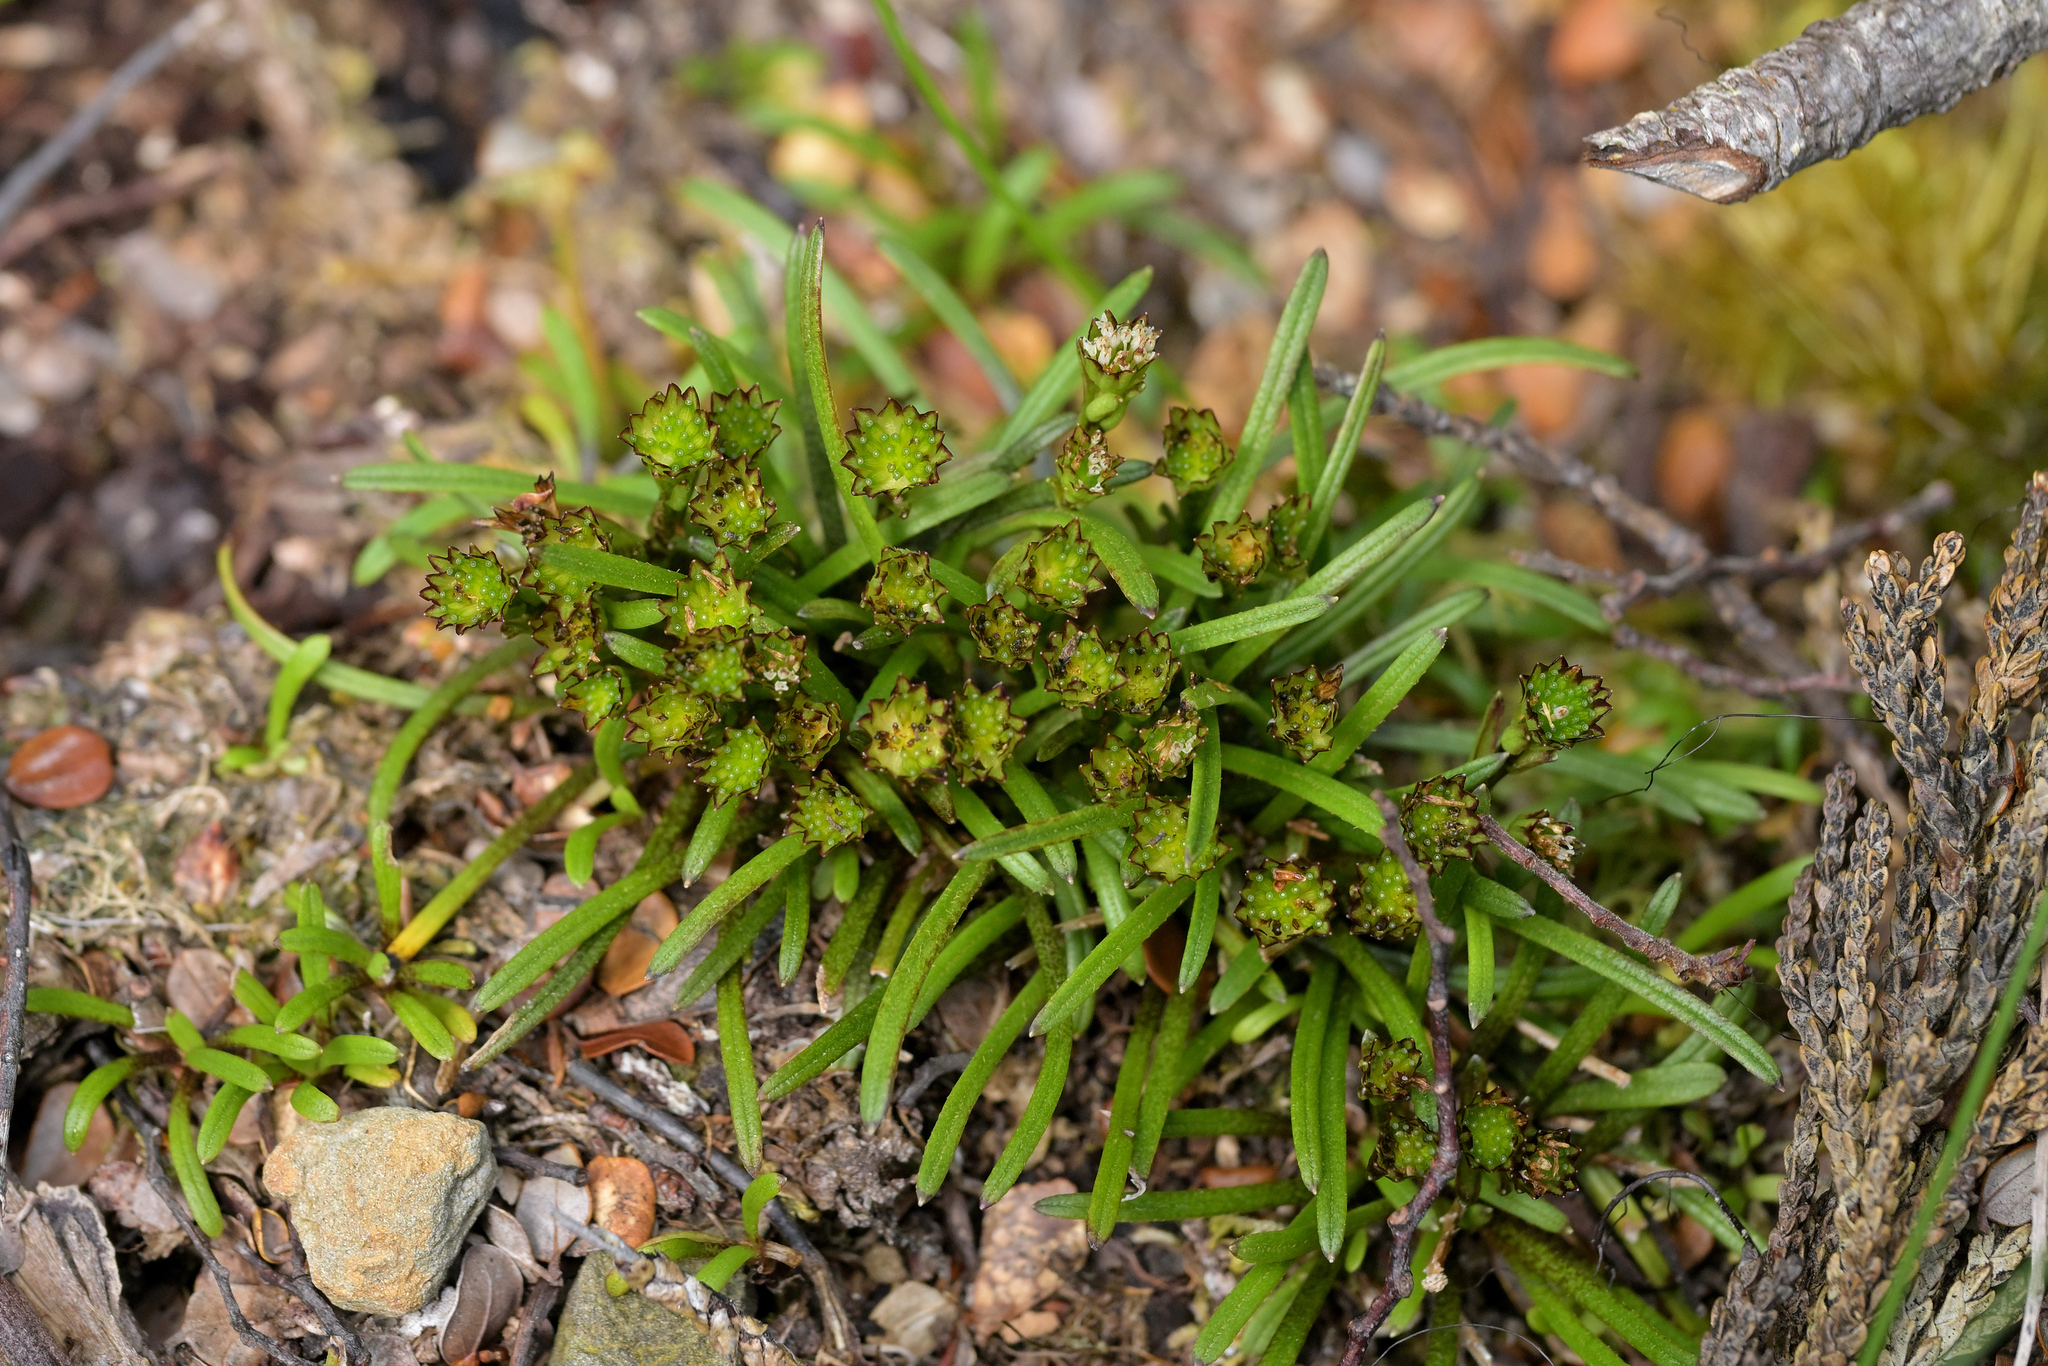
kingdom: Plantae
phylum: Tracheophyta
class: Magnoliopsida
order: Asterales
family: Asteraceae
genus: Abrotanella
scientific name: Abrotanella linearis
